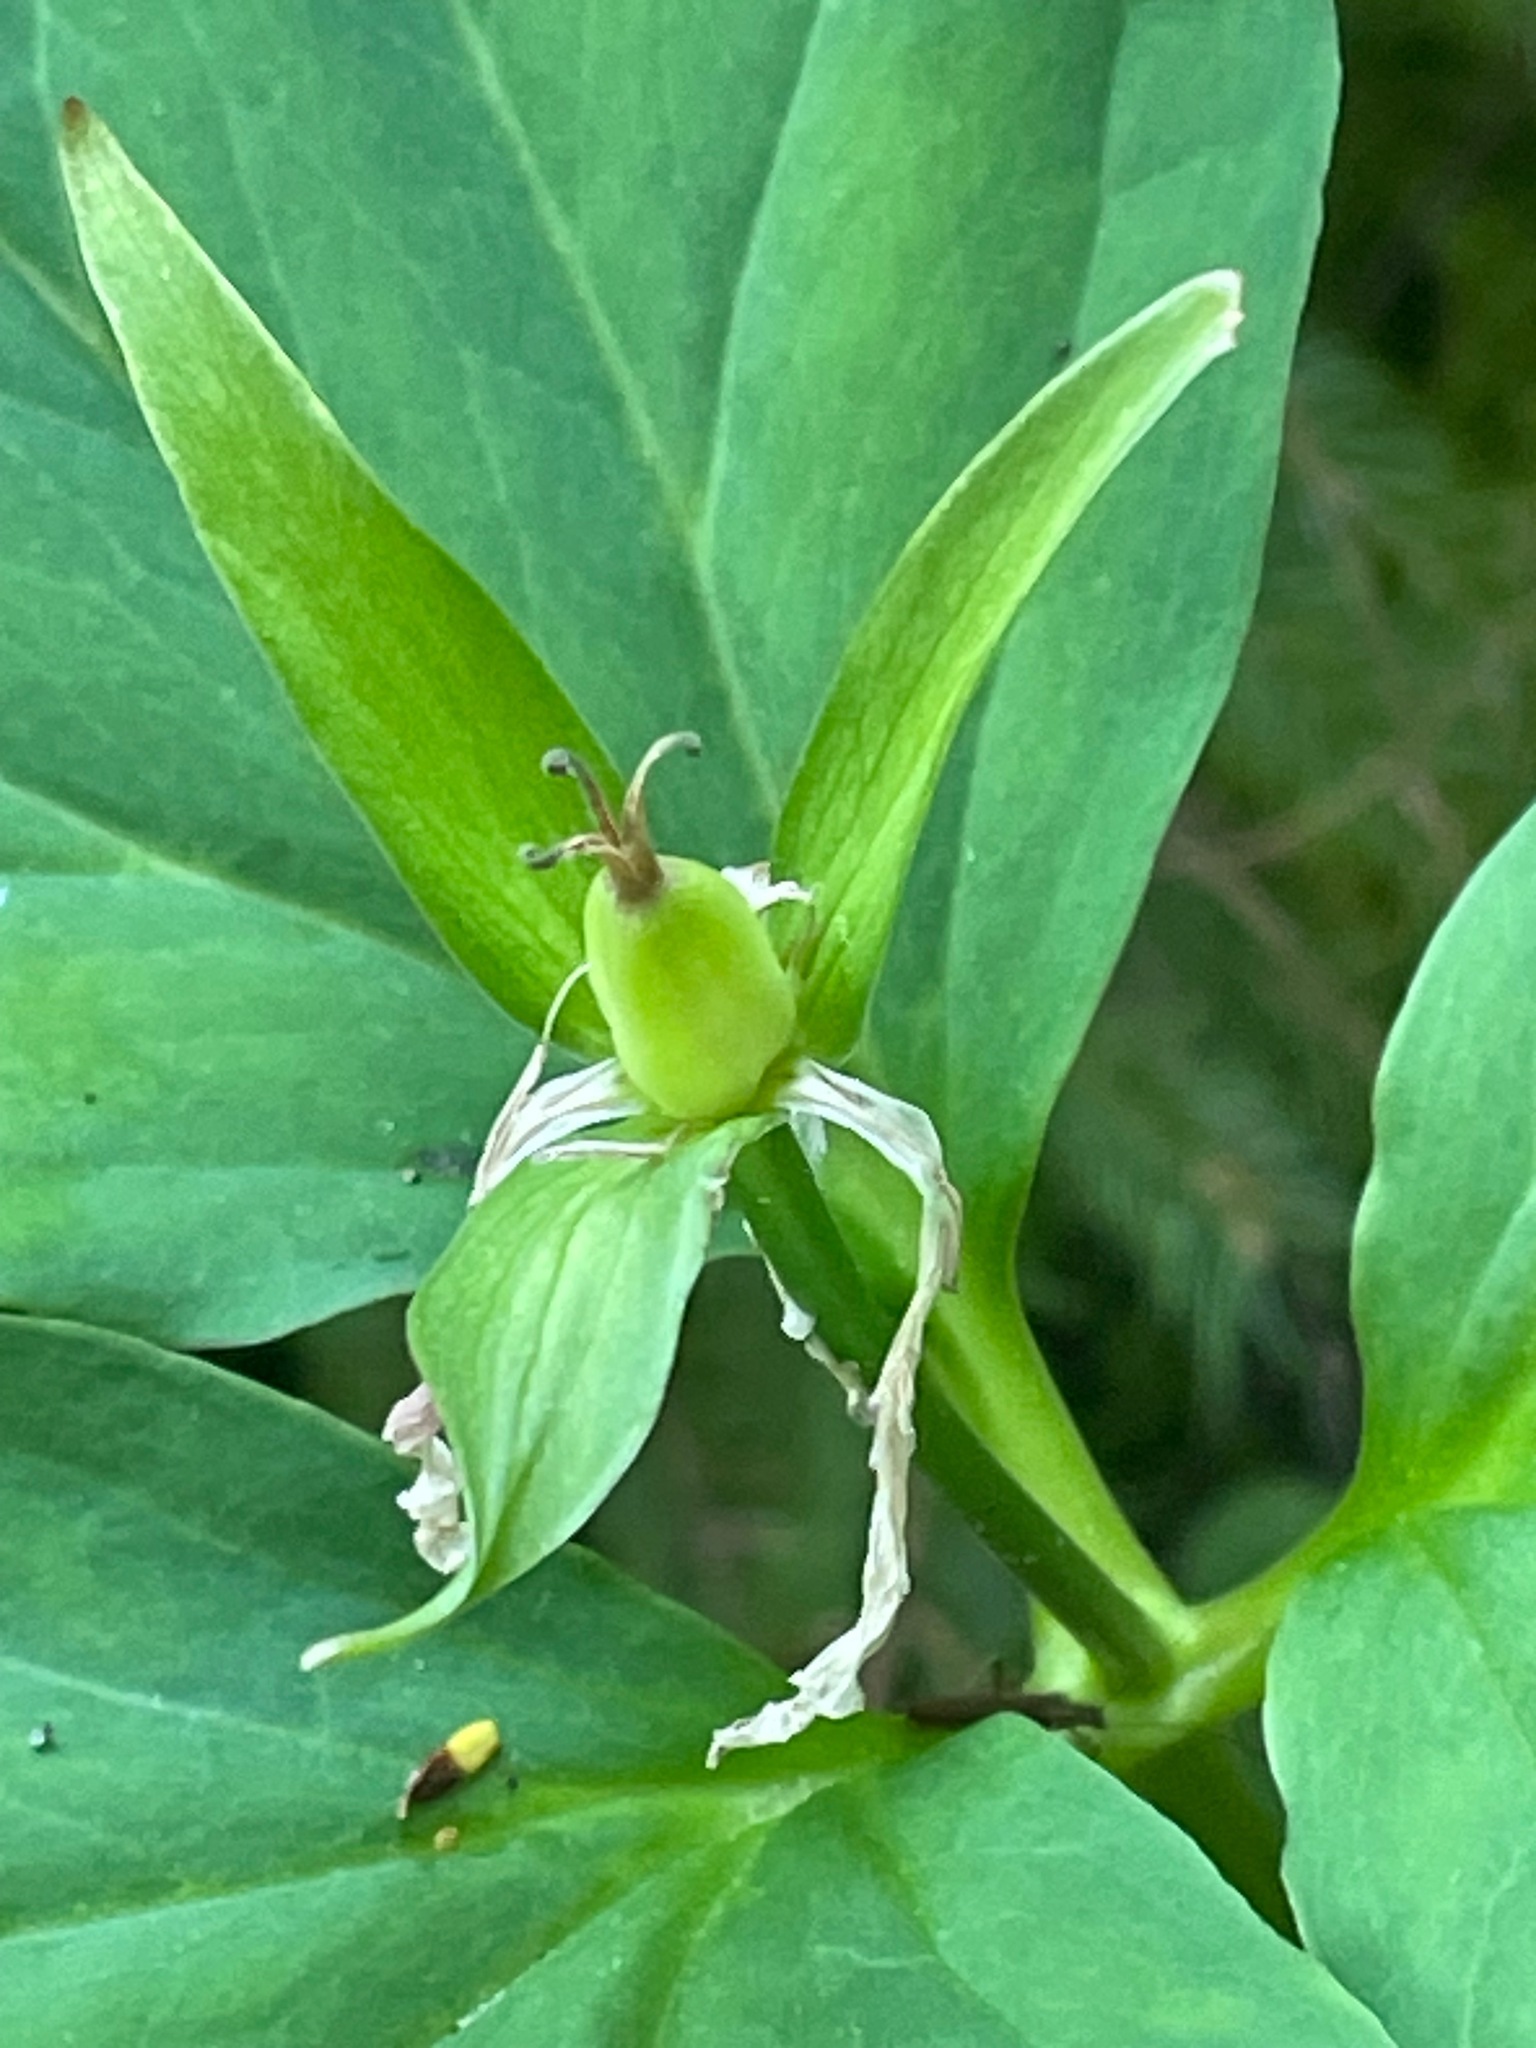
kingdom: Plantae
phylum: Tracheophyta
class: Liliopsida
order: Liliales
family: Melanthiaceae
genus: Trillium
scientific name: Trillium undulatum
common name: Paint trillium
